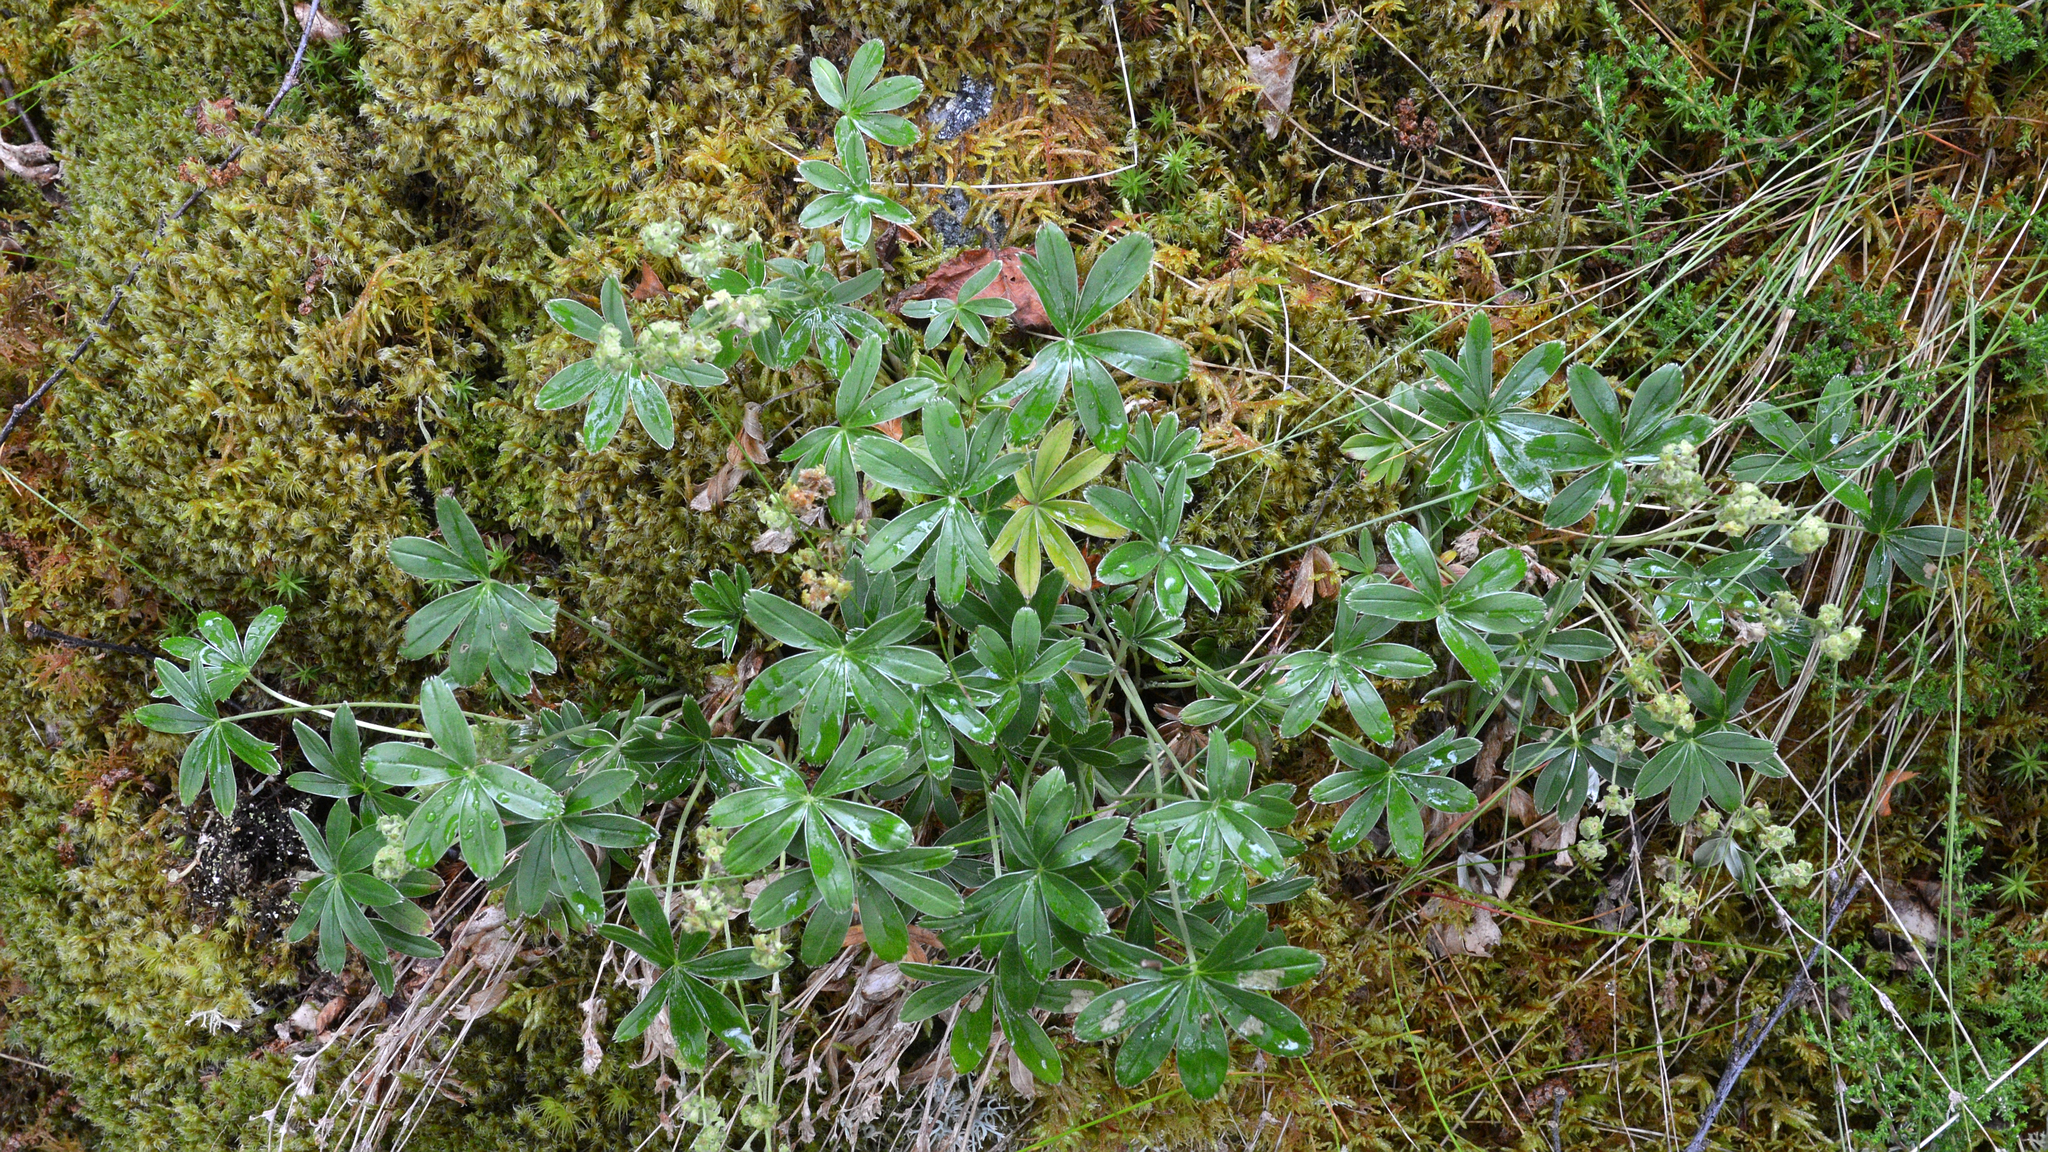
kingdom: Plantae
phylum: Tracheophyta
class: Magnoliopsida
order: Rosales
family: Rosaceae
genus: Alchemilla
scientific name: Alchemilla alpina
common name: Alpine lady's-mantle
